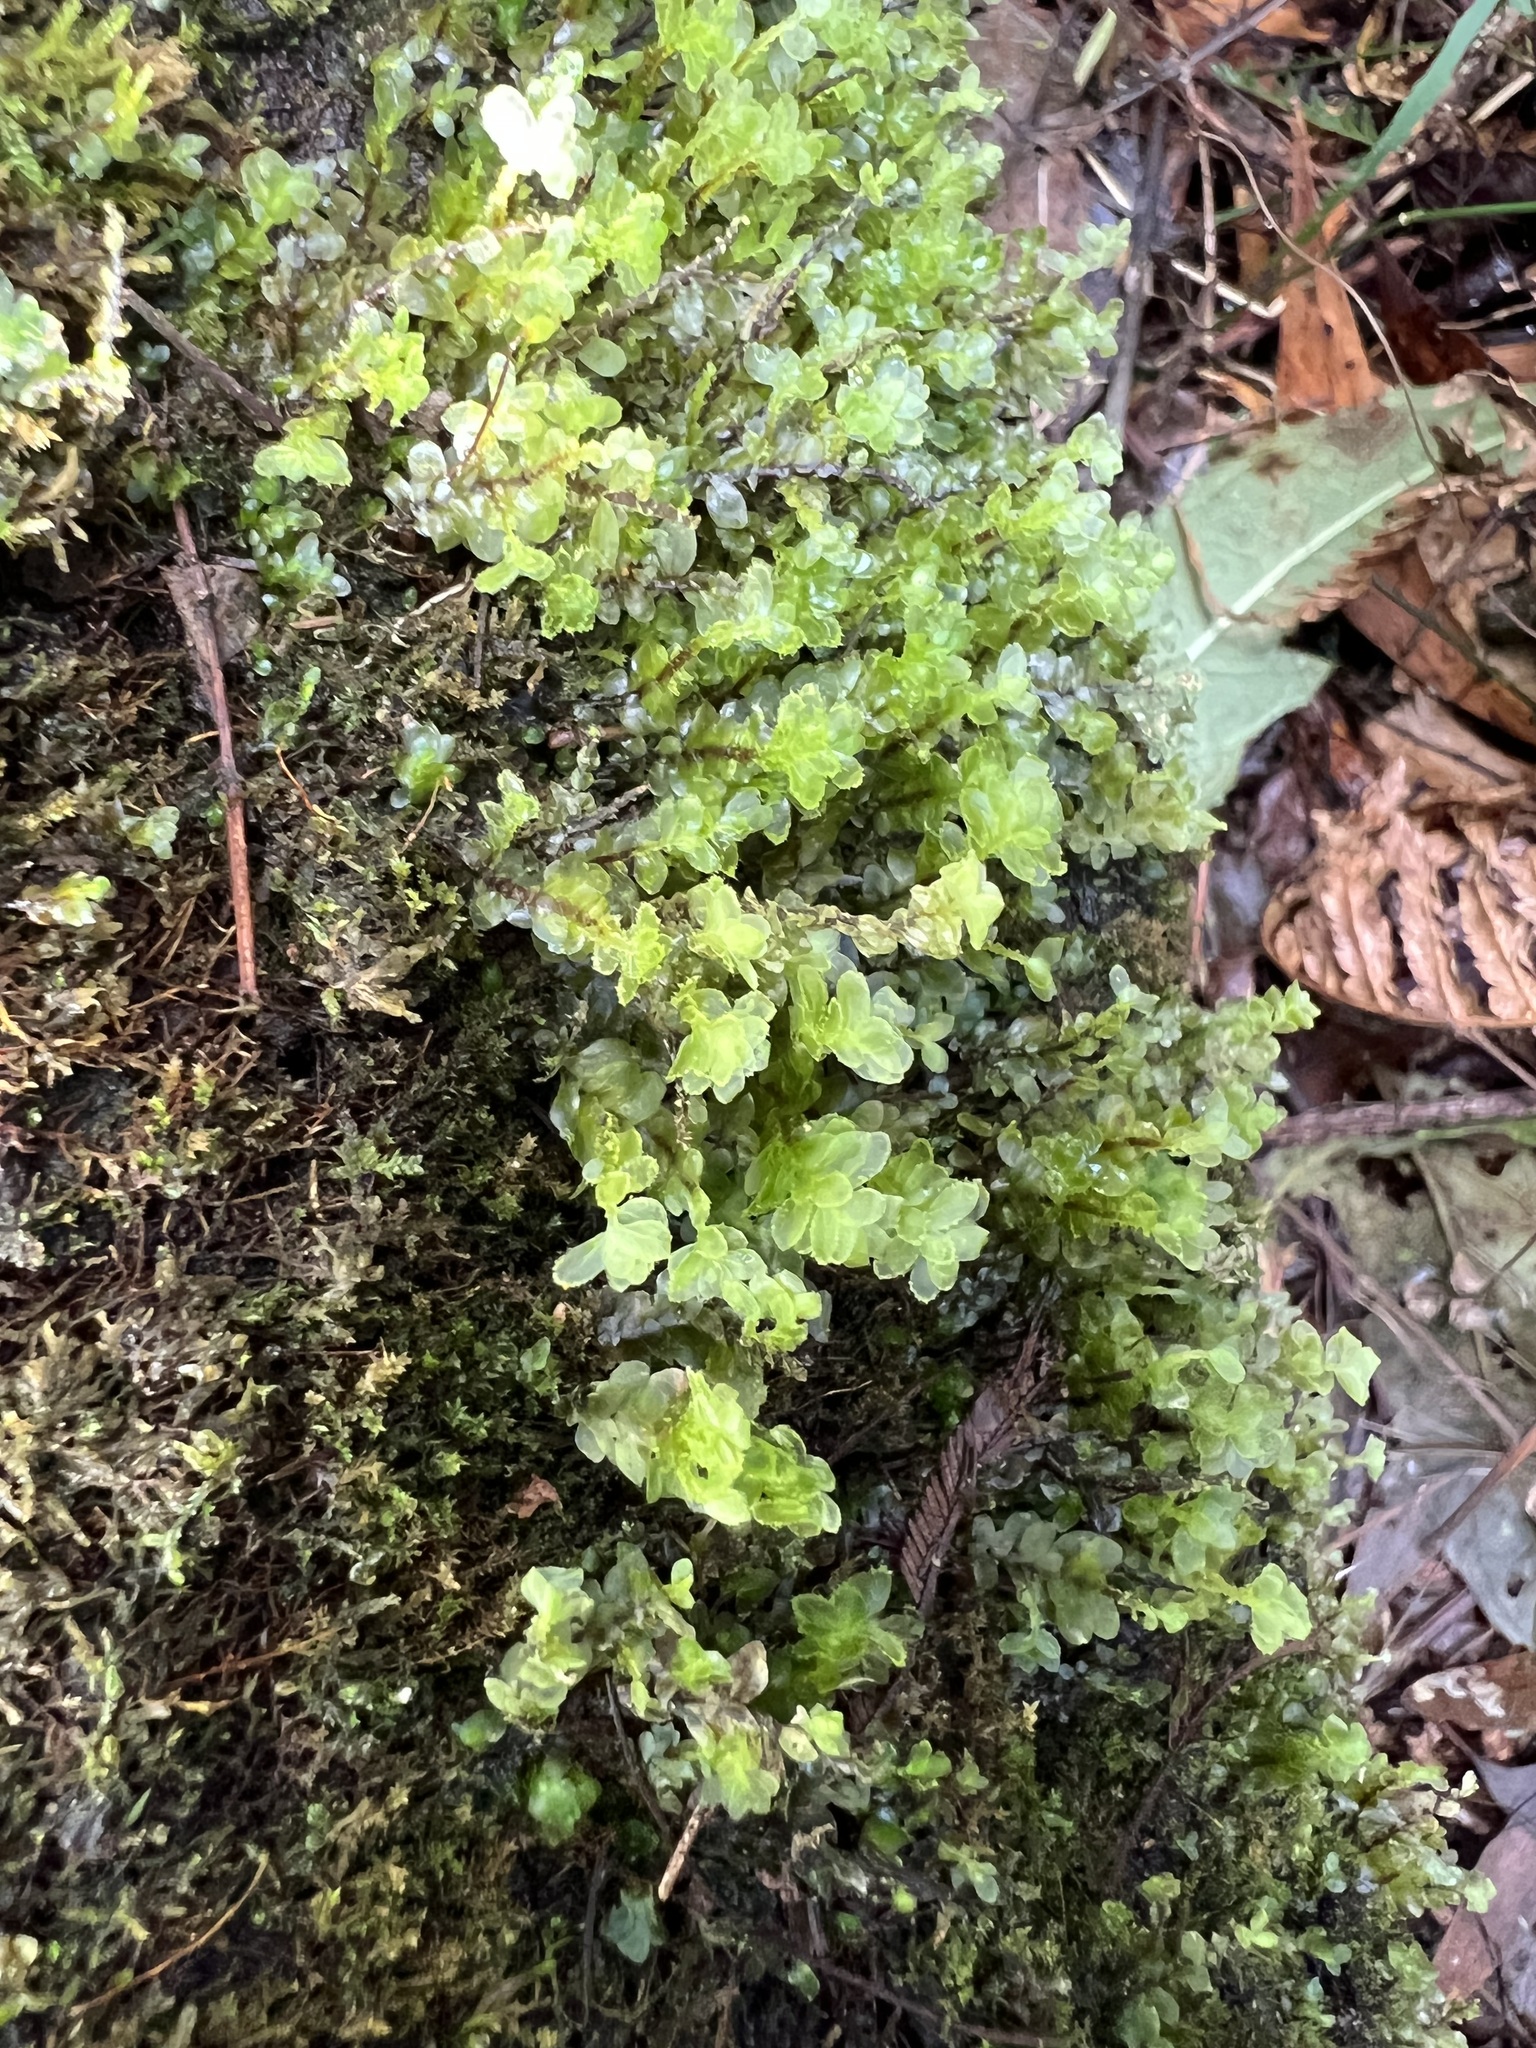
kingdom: Plantae
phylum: Bryophyta
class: Bryopsida
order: Hookeriales
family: Daltoniaceae
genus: Achrophyllum
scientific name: Achrophyllum dentatum
